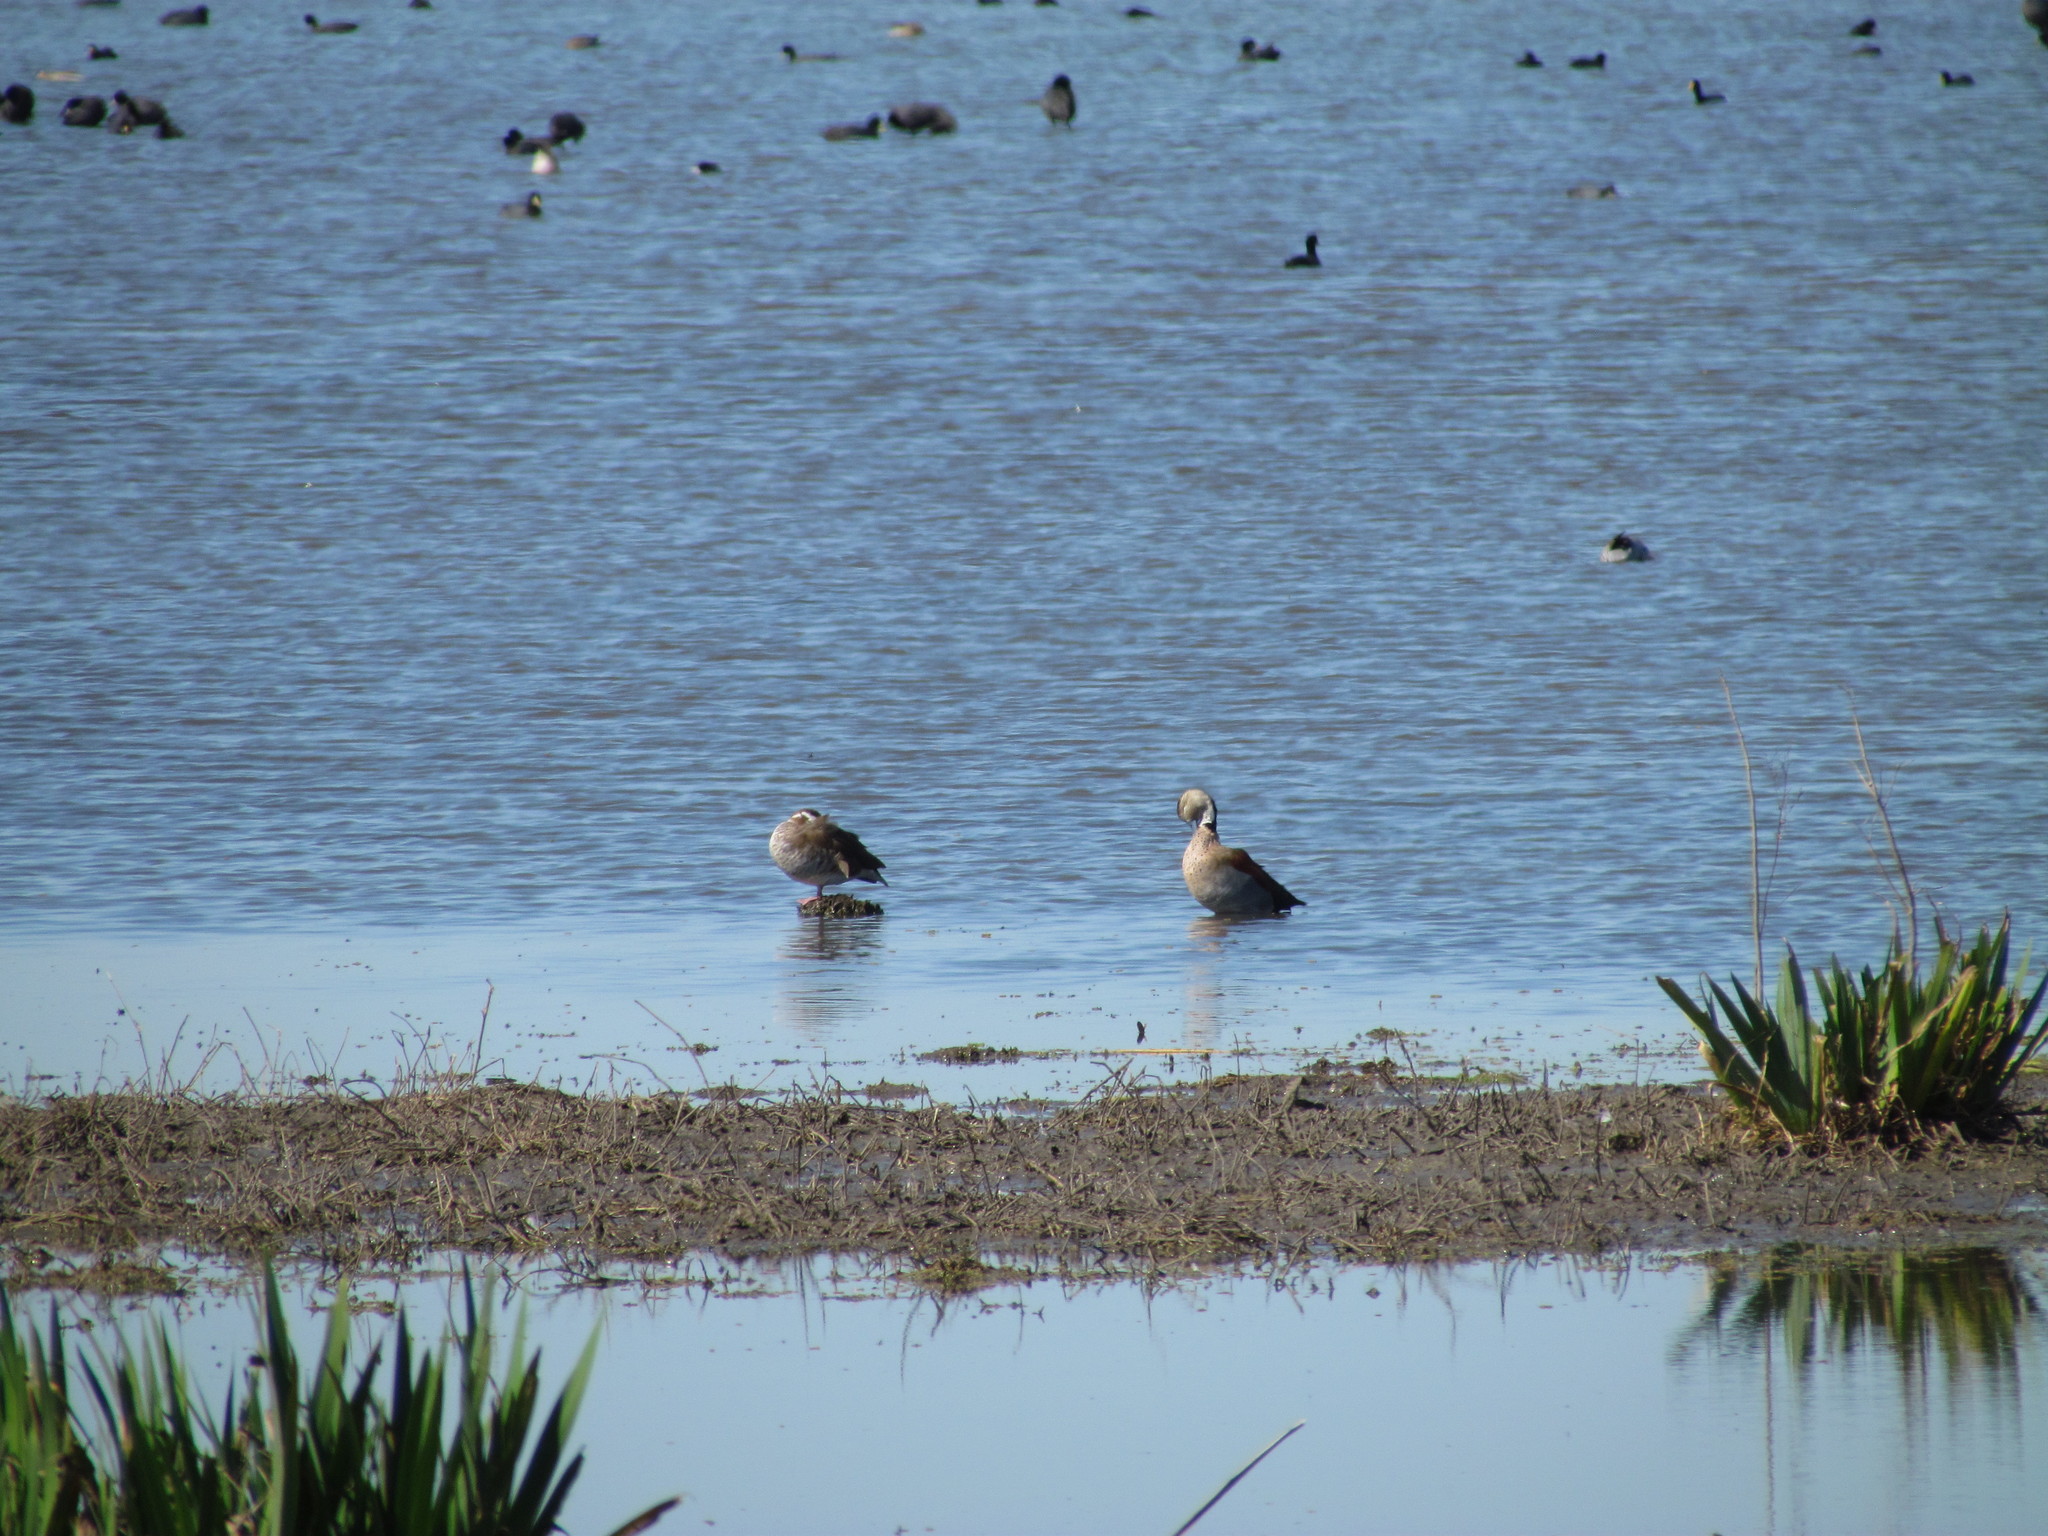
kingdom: Animalia
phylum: Chordata
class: Aves
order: Anseriformes
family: Anatidae
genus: Callonetta
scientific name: Callonetta leucophrys
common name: Ringed teal
